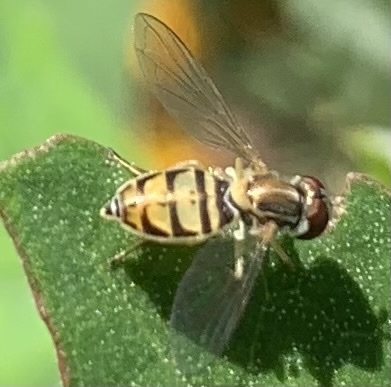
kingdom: Animalia
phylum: Arthropoda
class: Insecta
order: Diptera
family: Syrphidae
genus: Toxomerus
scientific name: Toxomerus marginatus
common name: Syrphid fly
